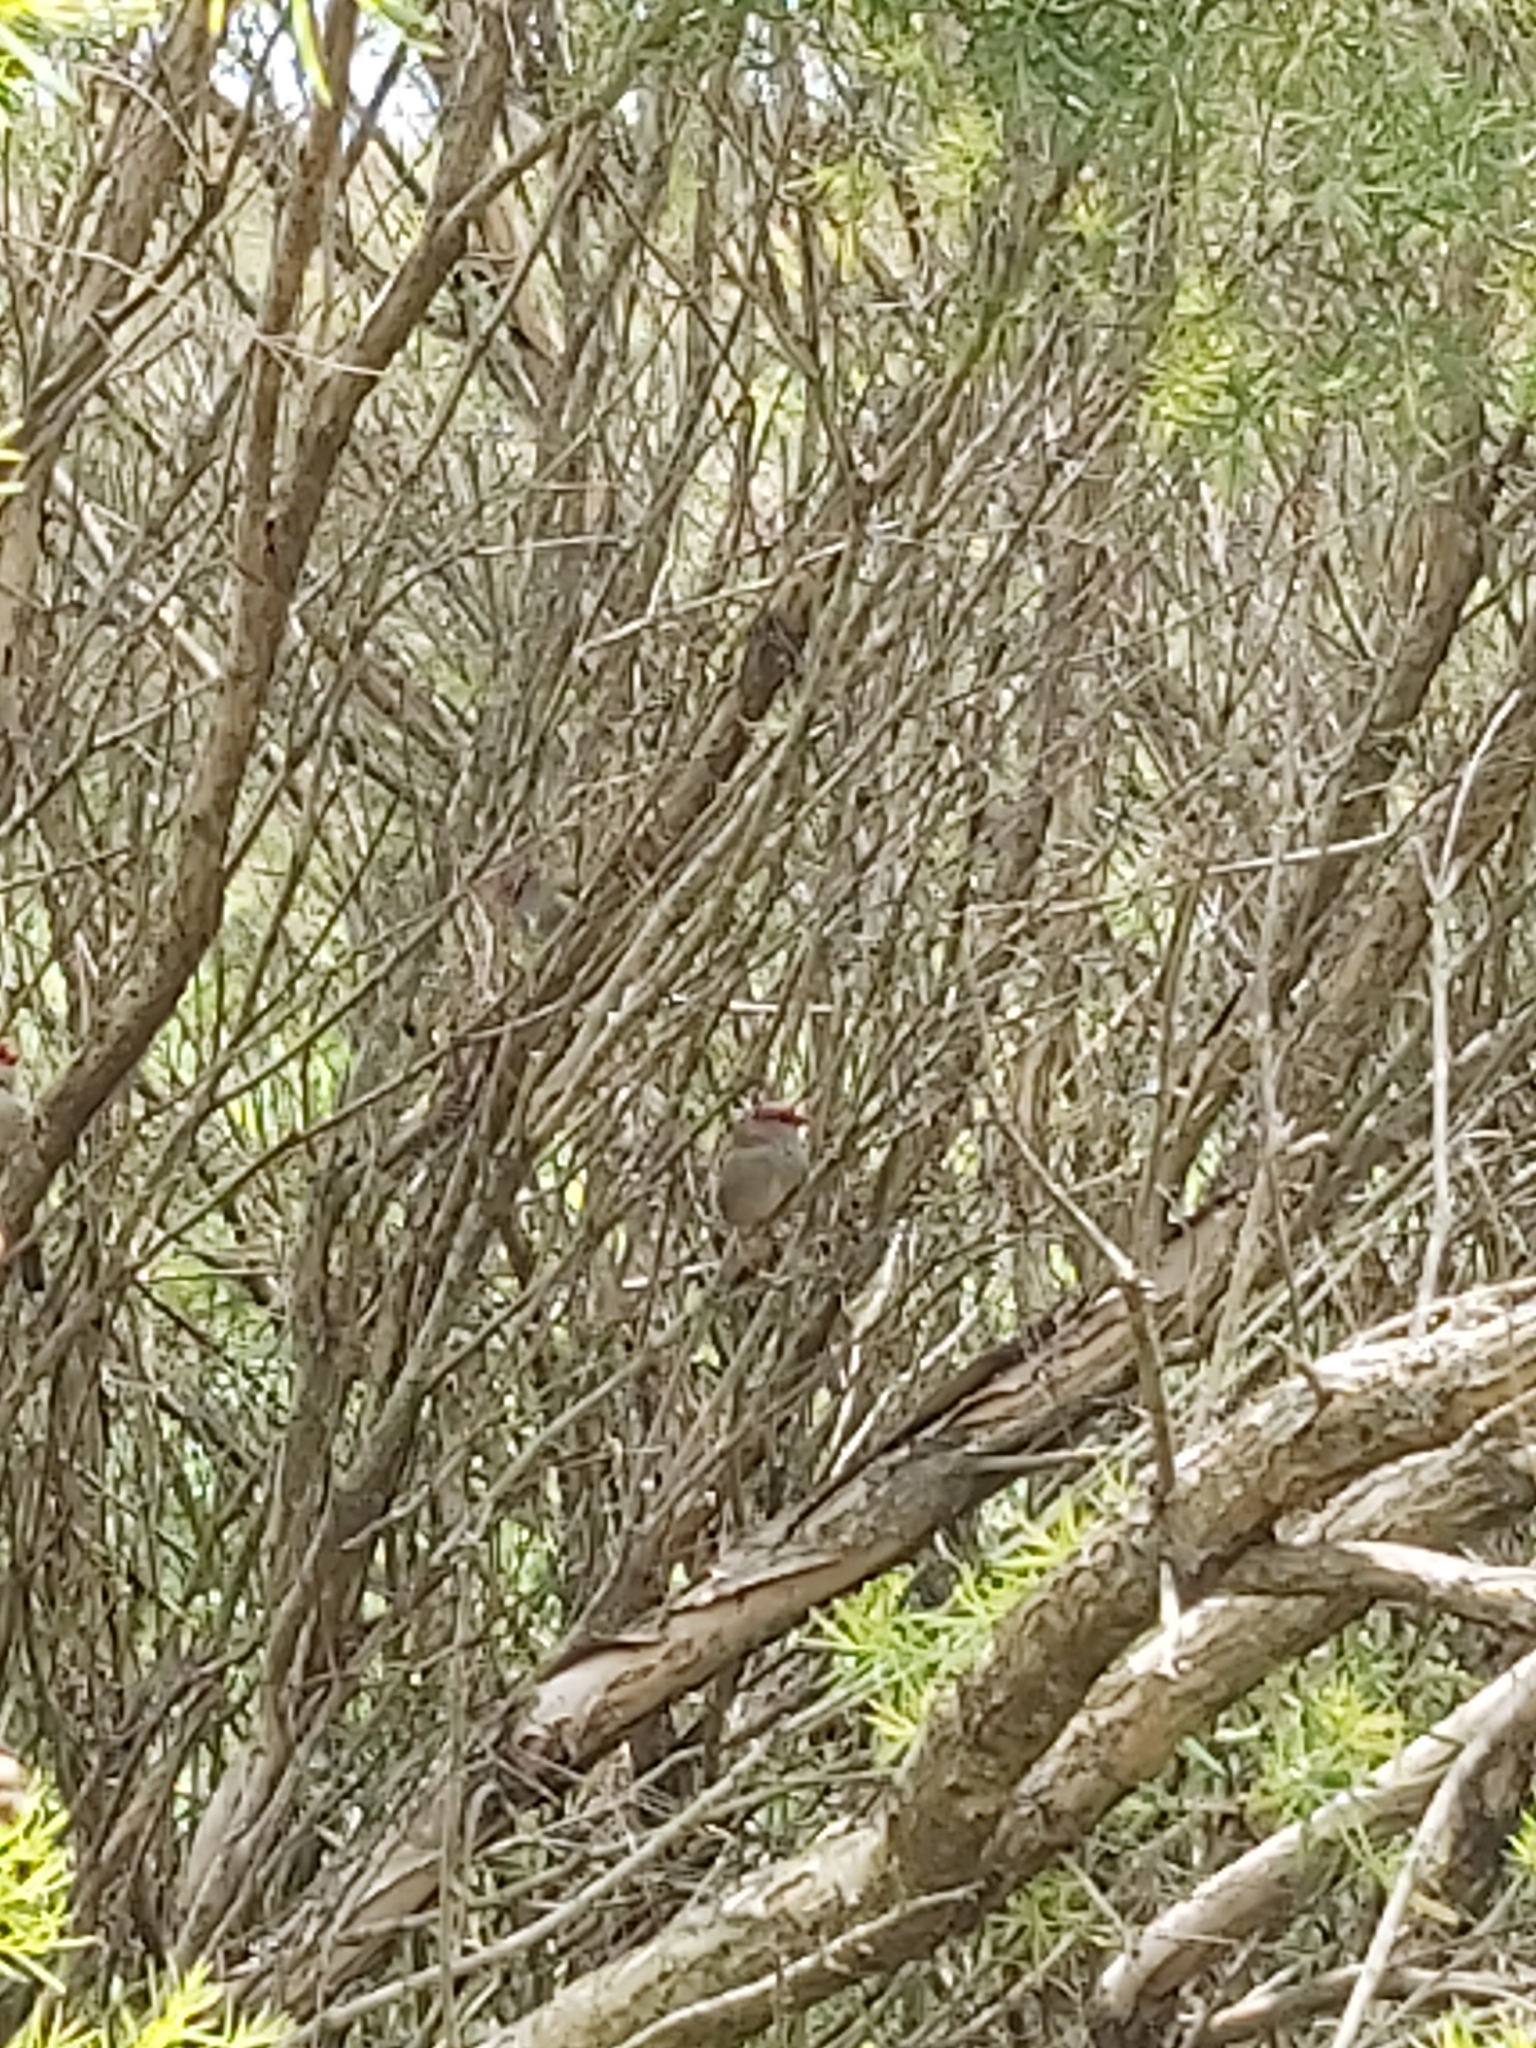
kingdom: Animalia
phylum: Chordata
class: Aves
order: Passeriformes
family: Estrildidae
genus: Neochmia
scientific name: Neochmia temporalis
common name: Red-browed finch
